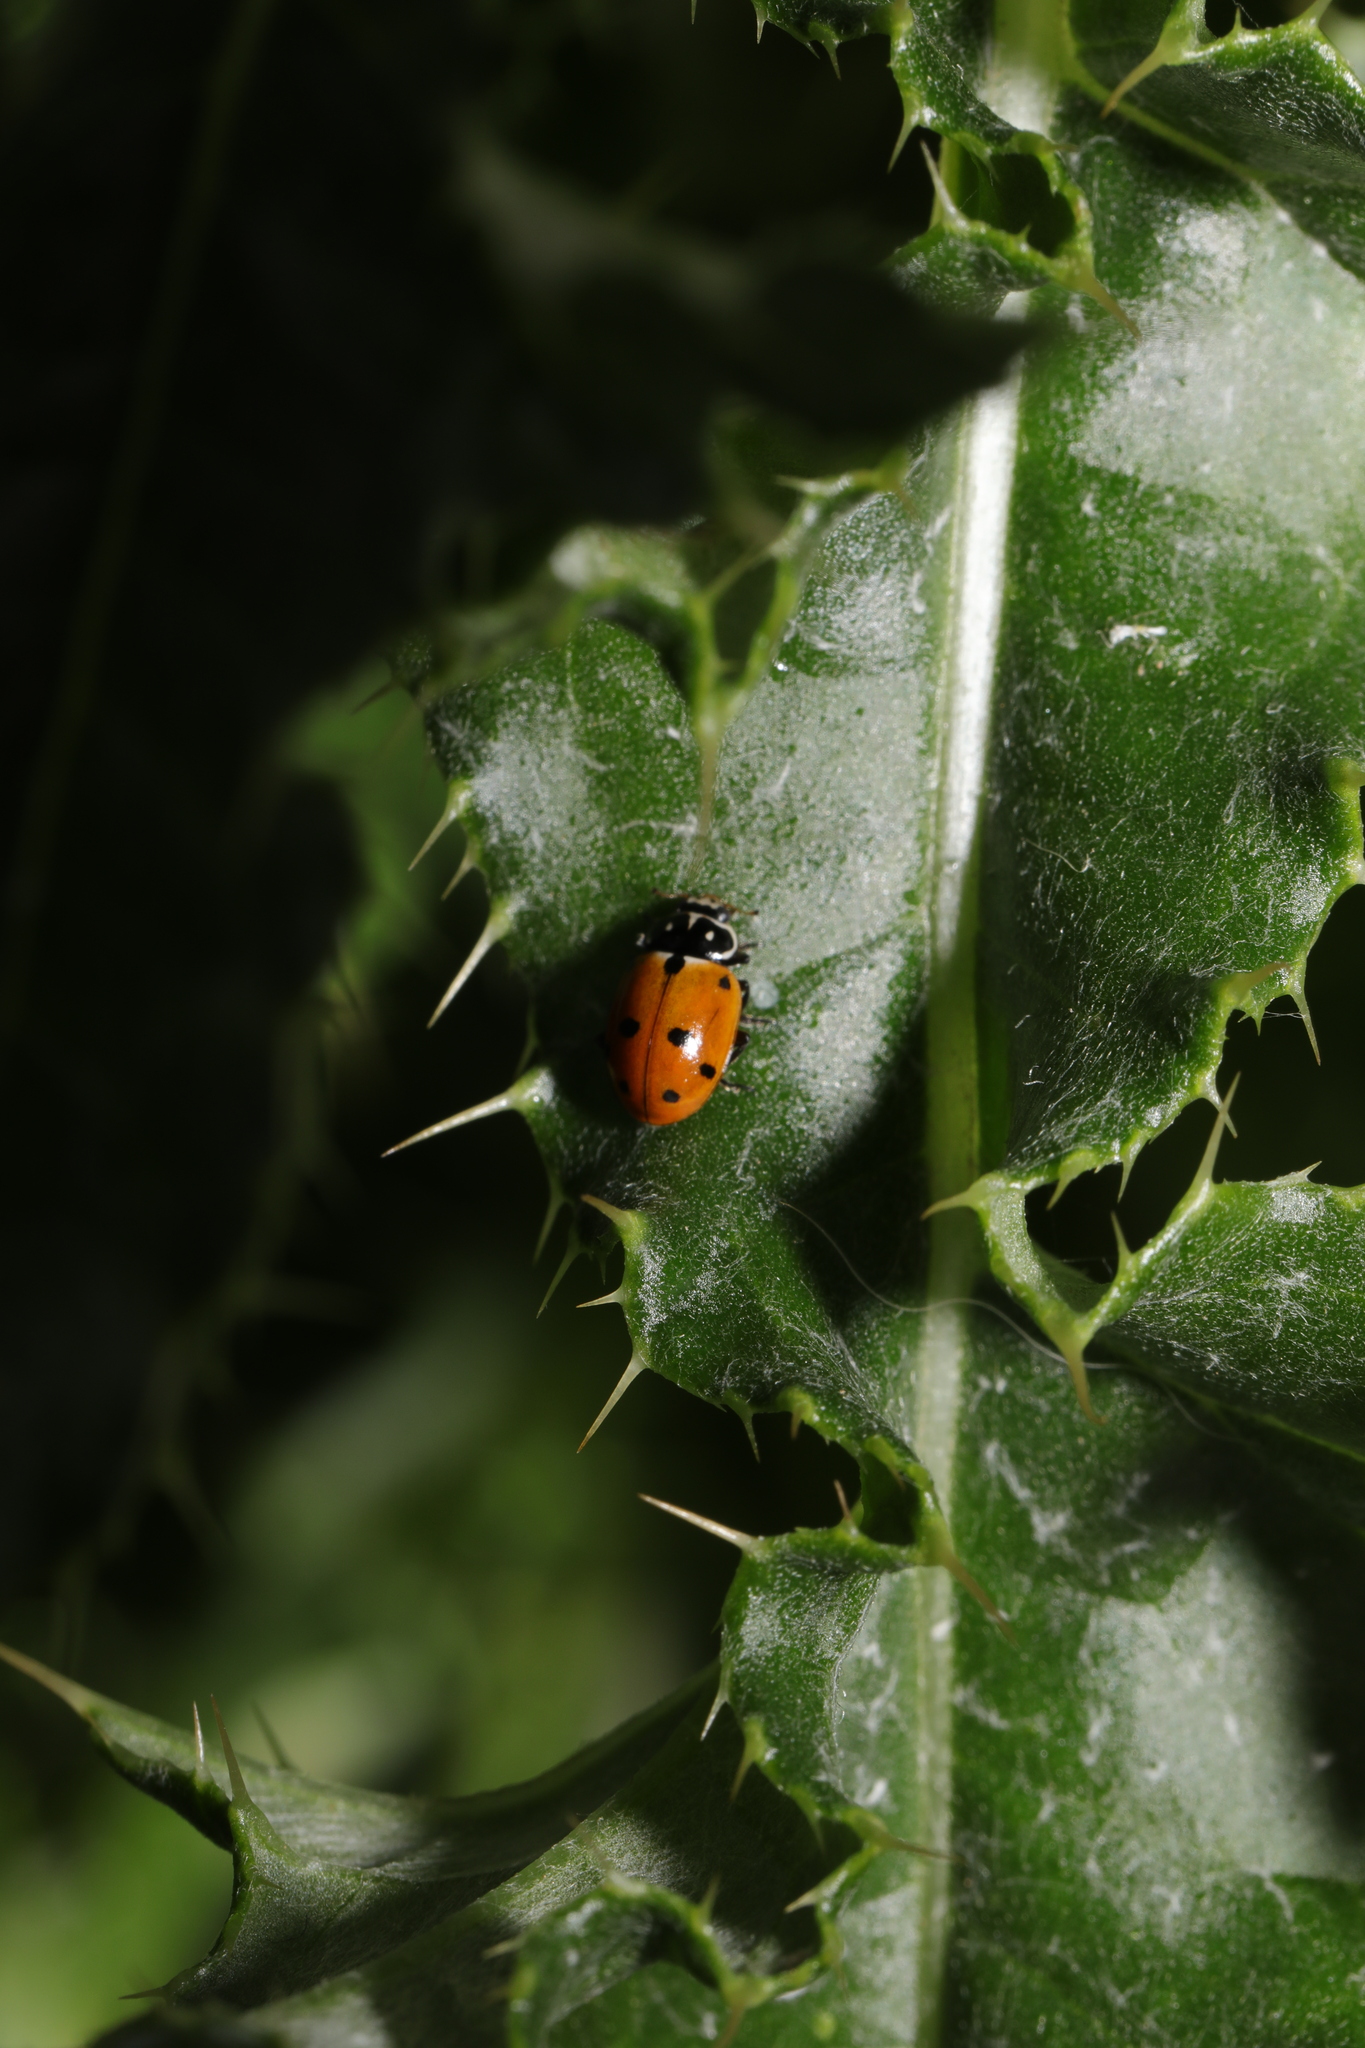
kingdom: Animalia
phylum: Arthropoda
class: Insecta
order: Coleoptera
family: Coccinellidae
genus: Hippodamia
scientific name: Hippodamia variegata
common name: Ladybird beetle
